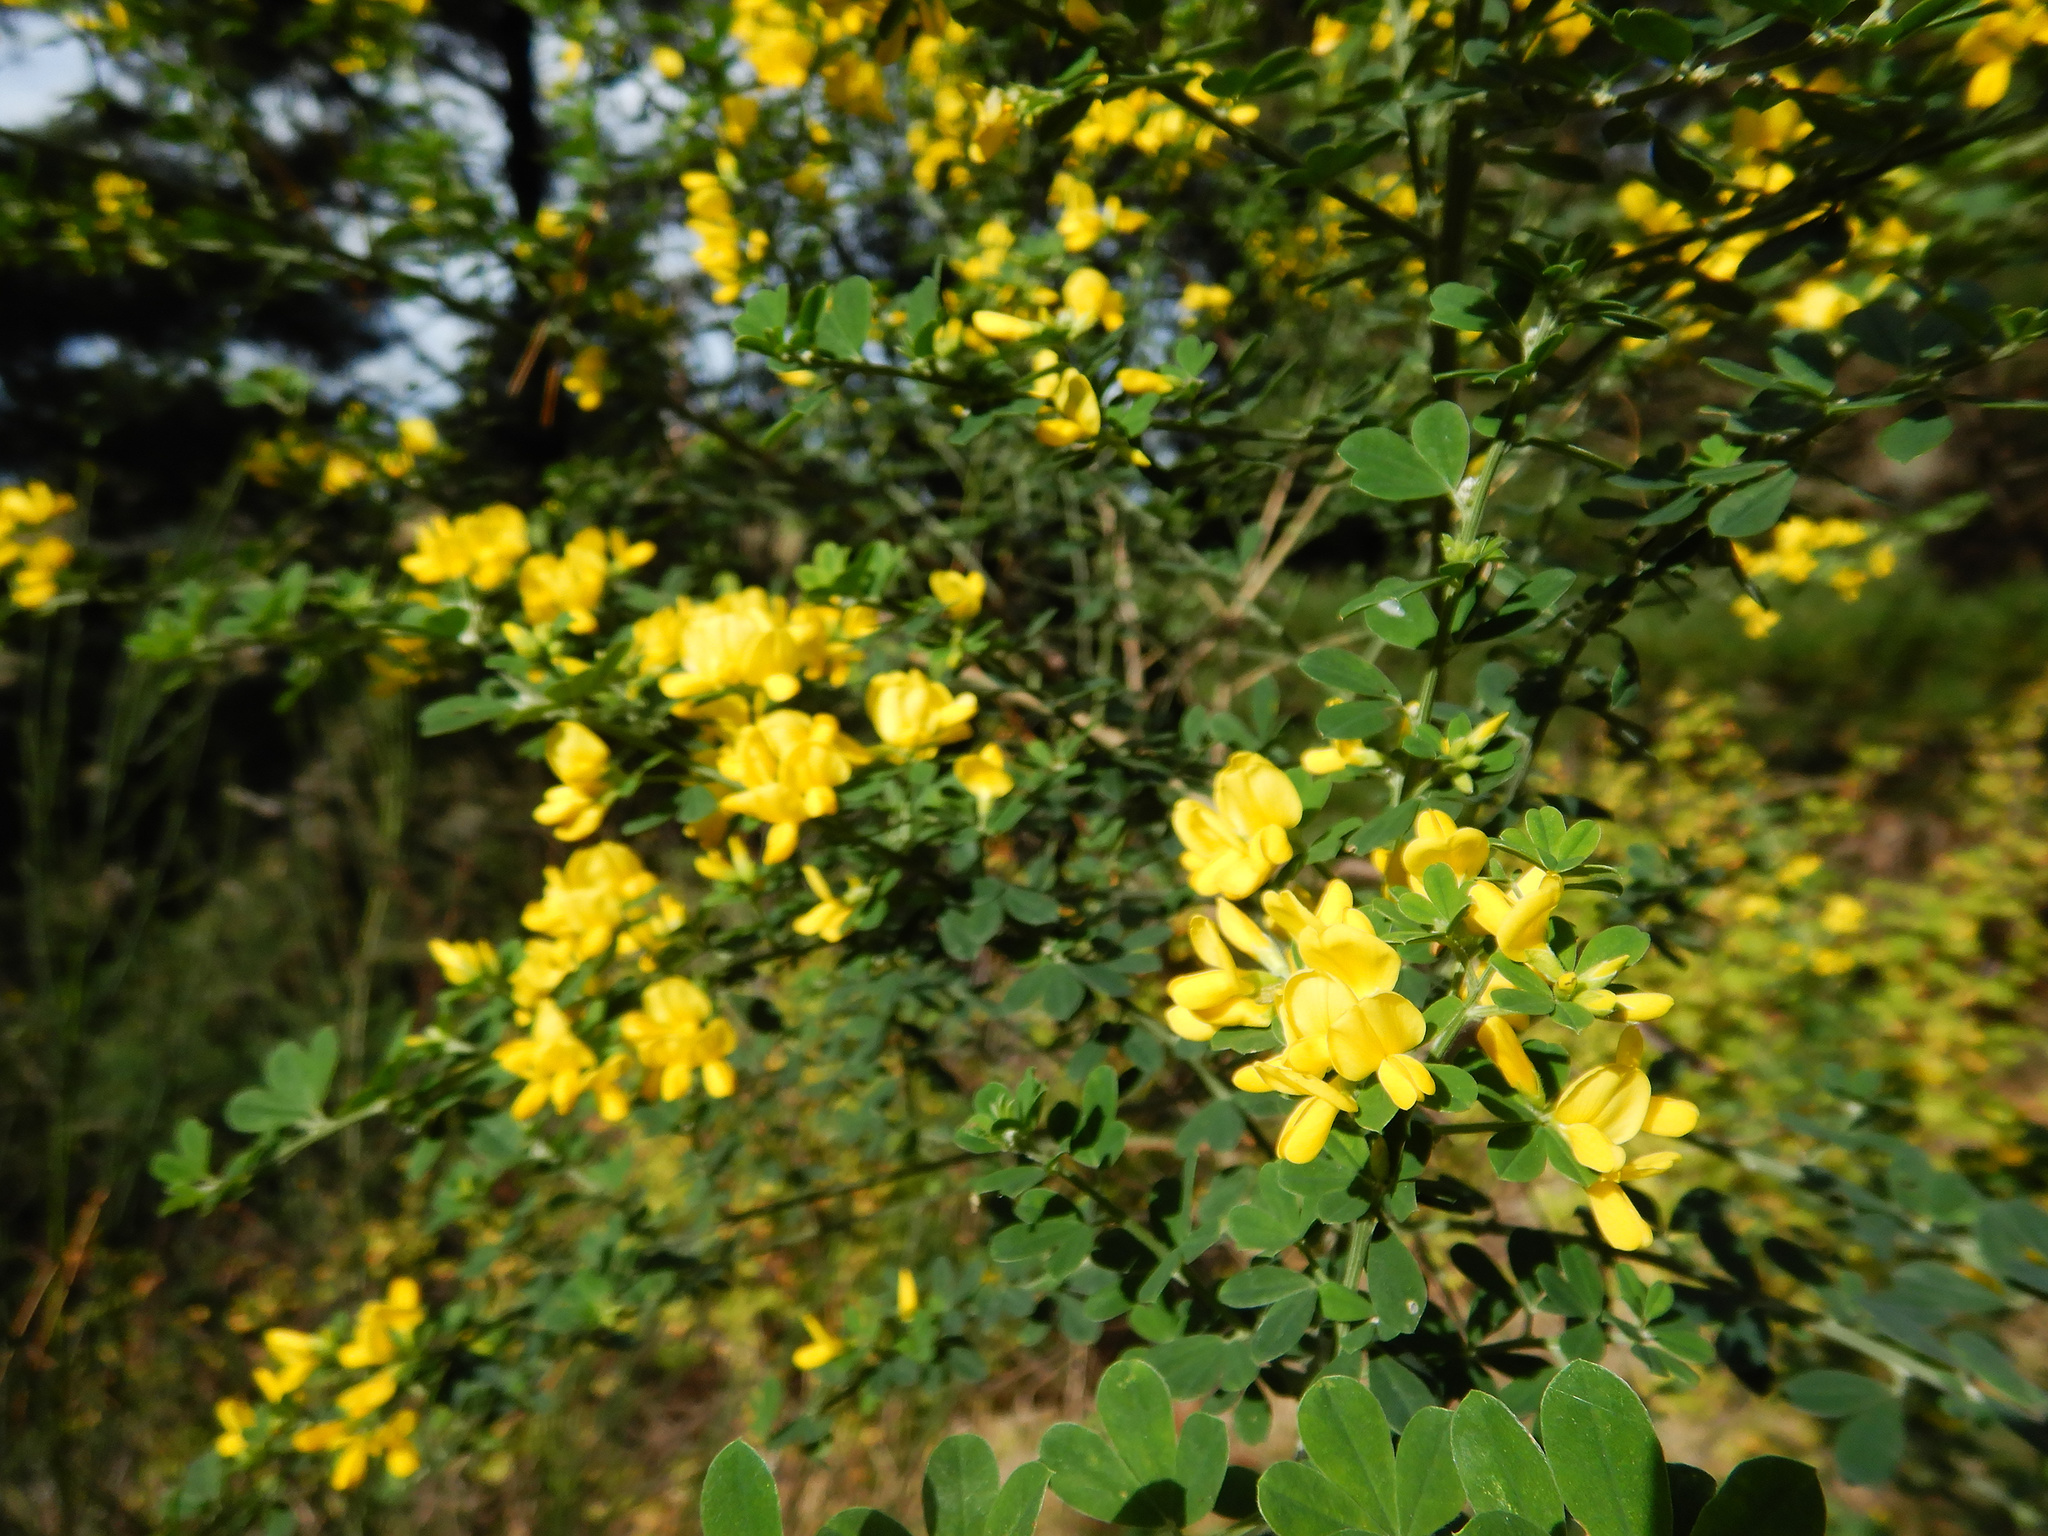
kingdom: Plantae
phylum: Tracheophyta
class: Magnoliopsida
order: Fabales
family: Fabaceae
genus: Genista
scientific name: Genista monspessulana
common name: Montpellier broom
